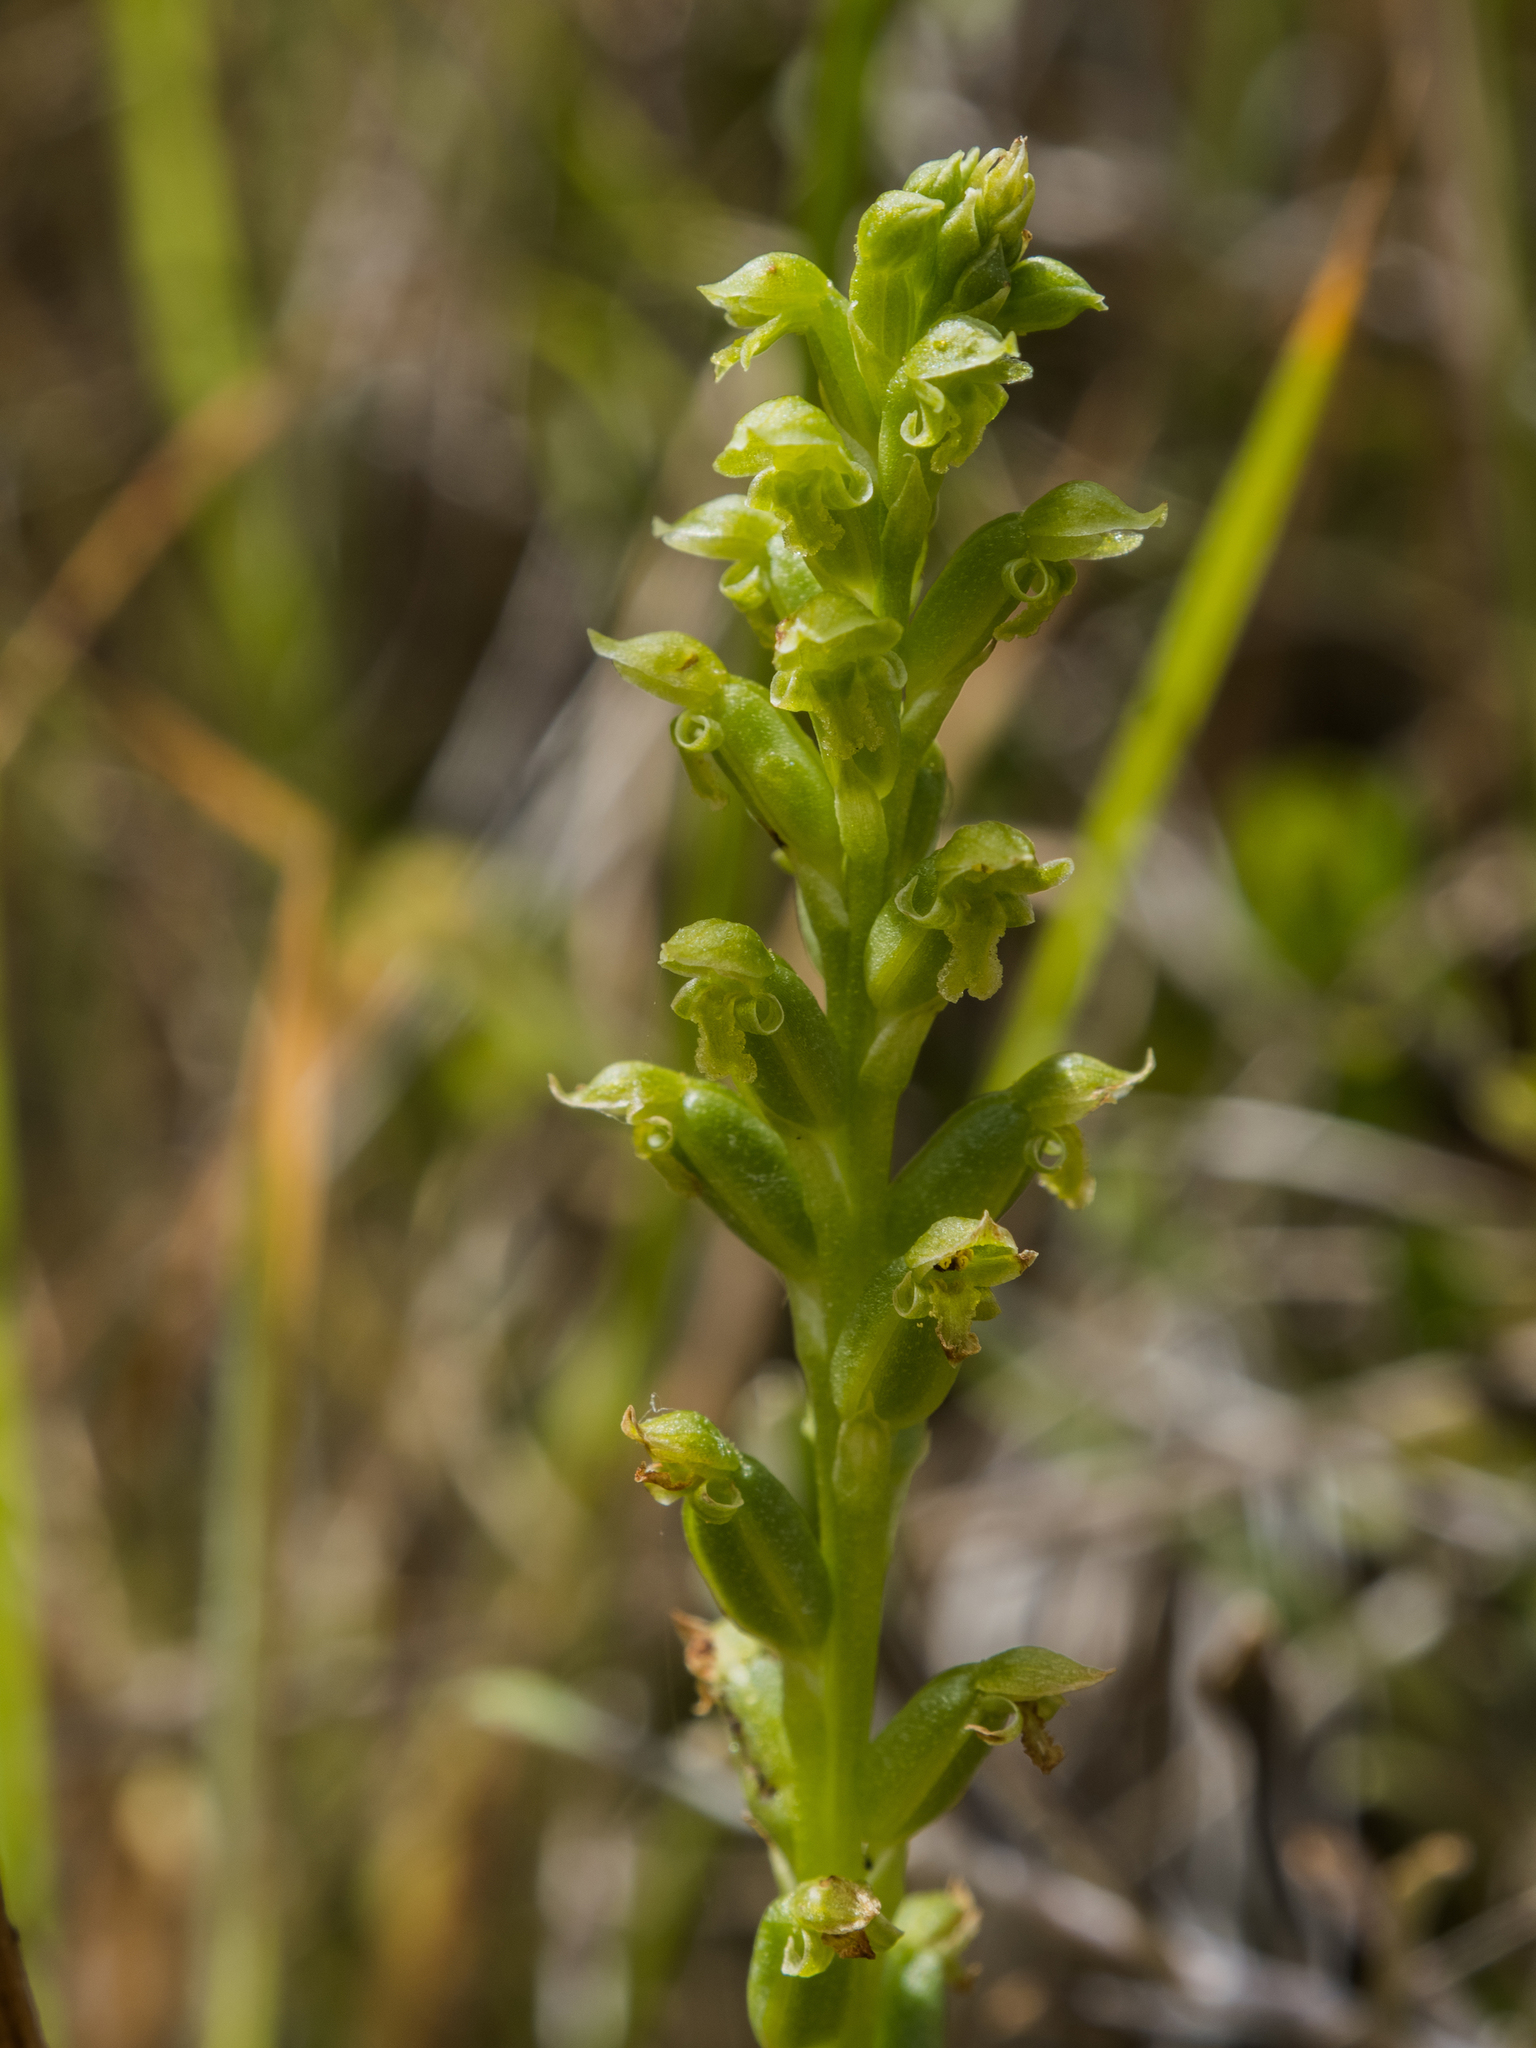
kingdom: Plantae
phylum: Tracheophyta
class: Liliopsida
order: Asparagales
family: Orchidaceae
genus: Microtis
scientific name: Microtis unifolia
